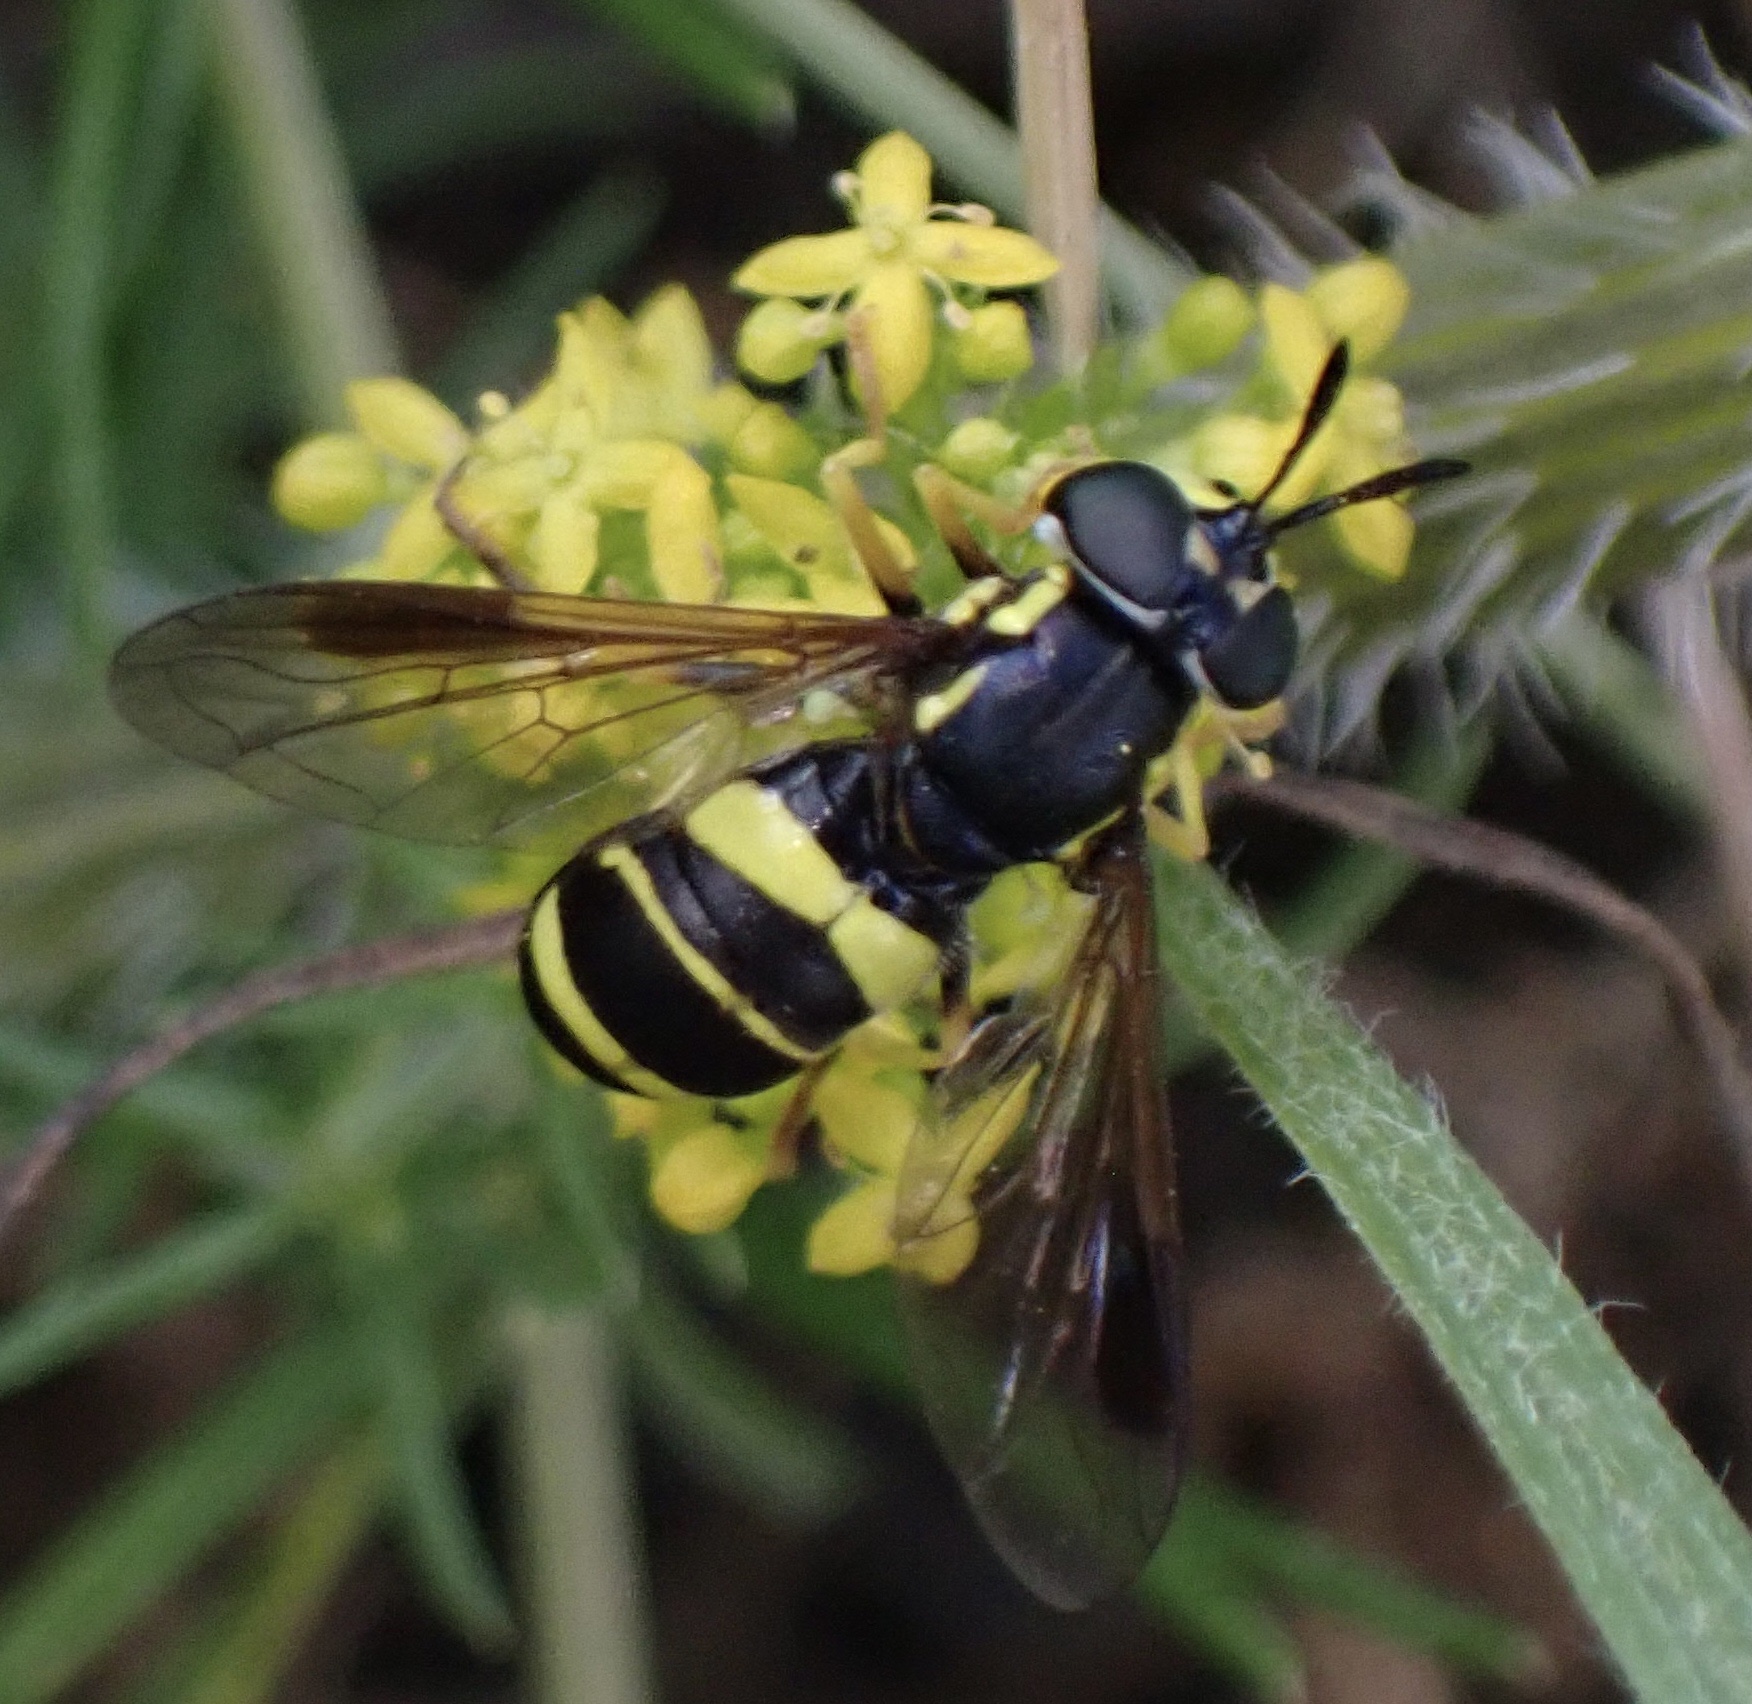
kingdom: Animalia
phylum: Arthropoda
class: Insecta
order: Diptera
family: Syrphidae
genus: Chrysotoxum
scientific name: Chrysotoxum bicincta
